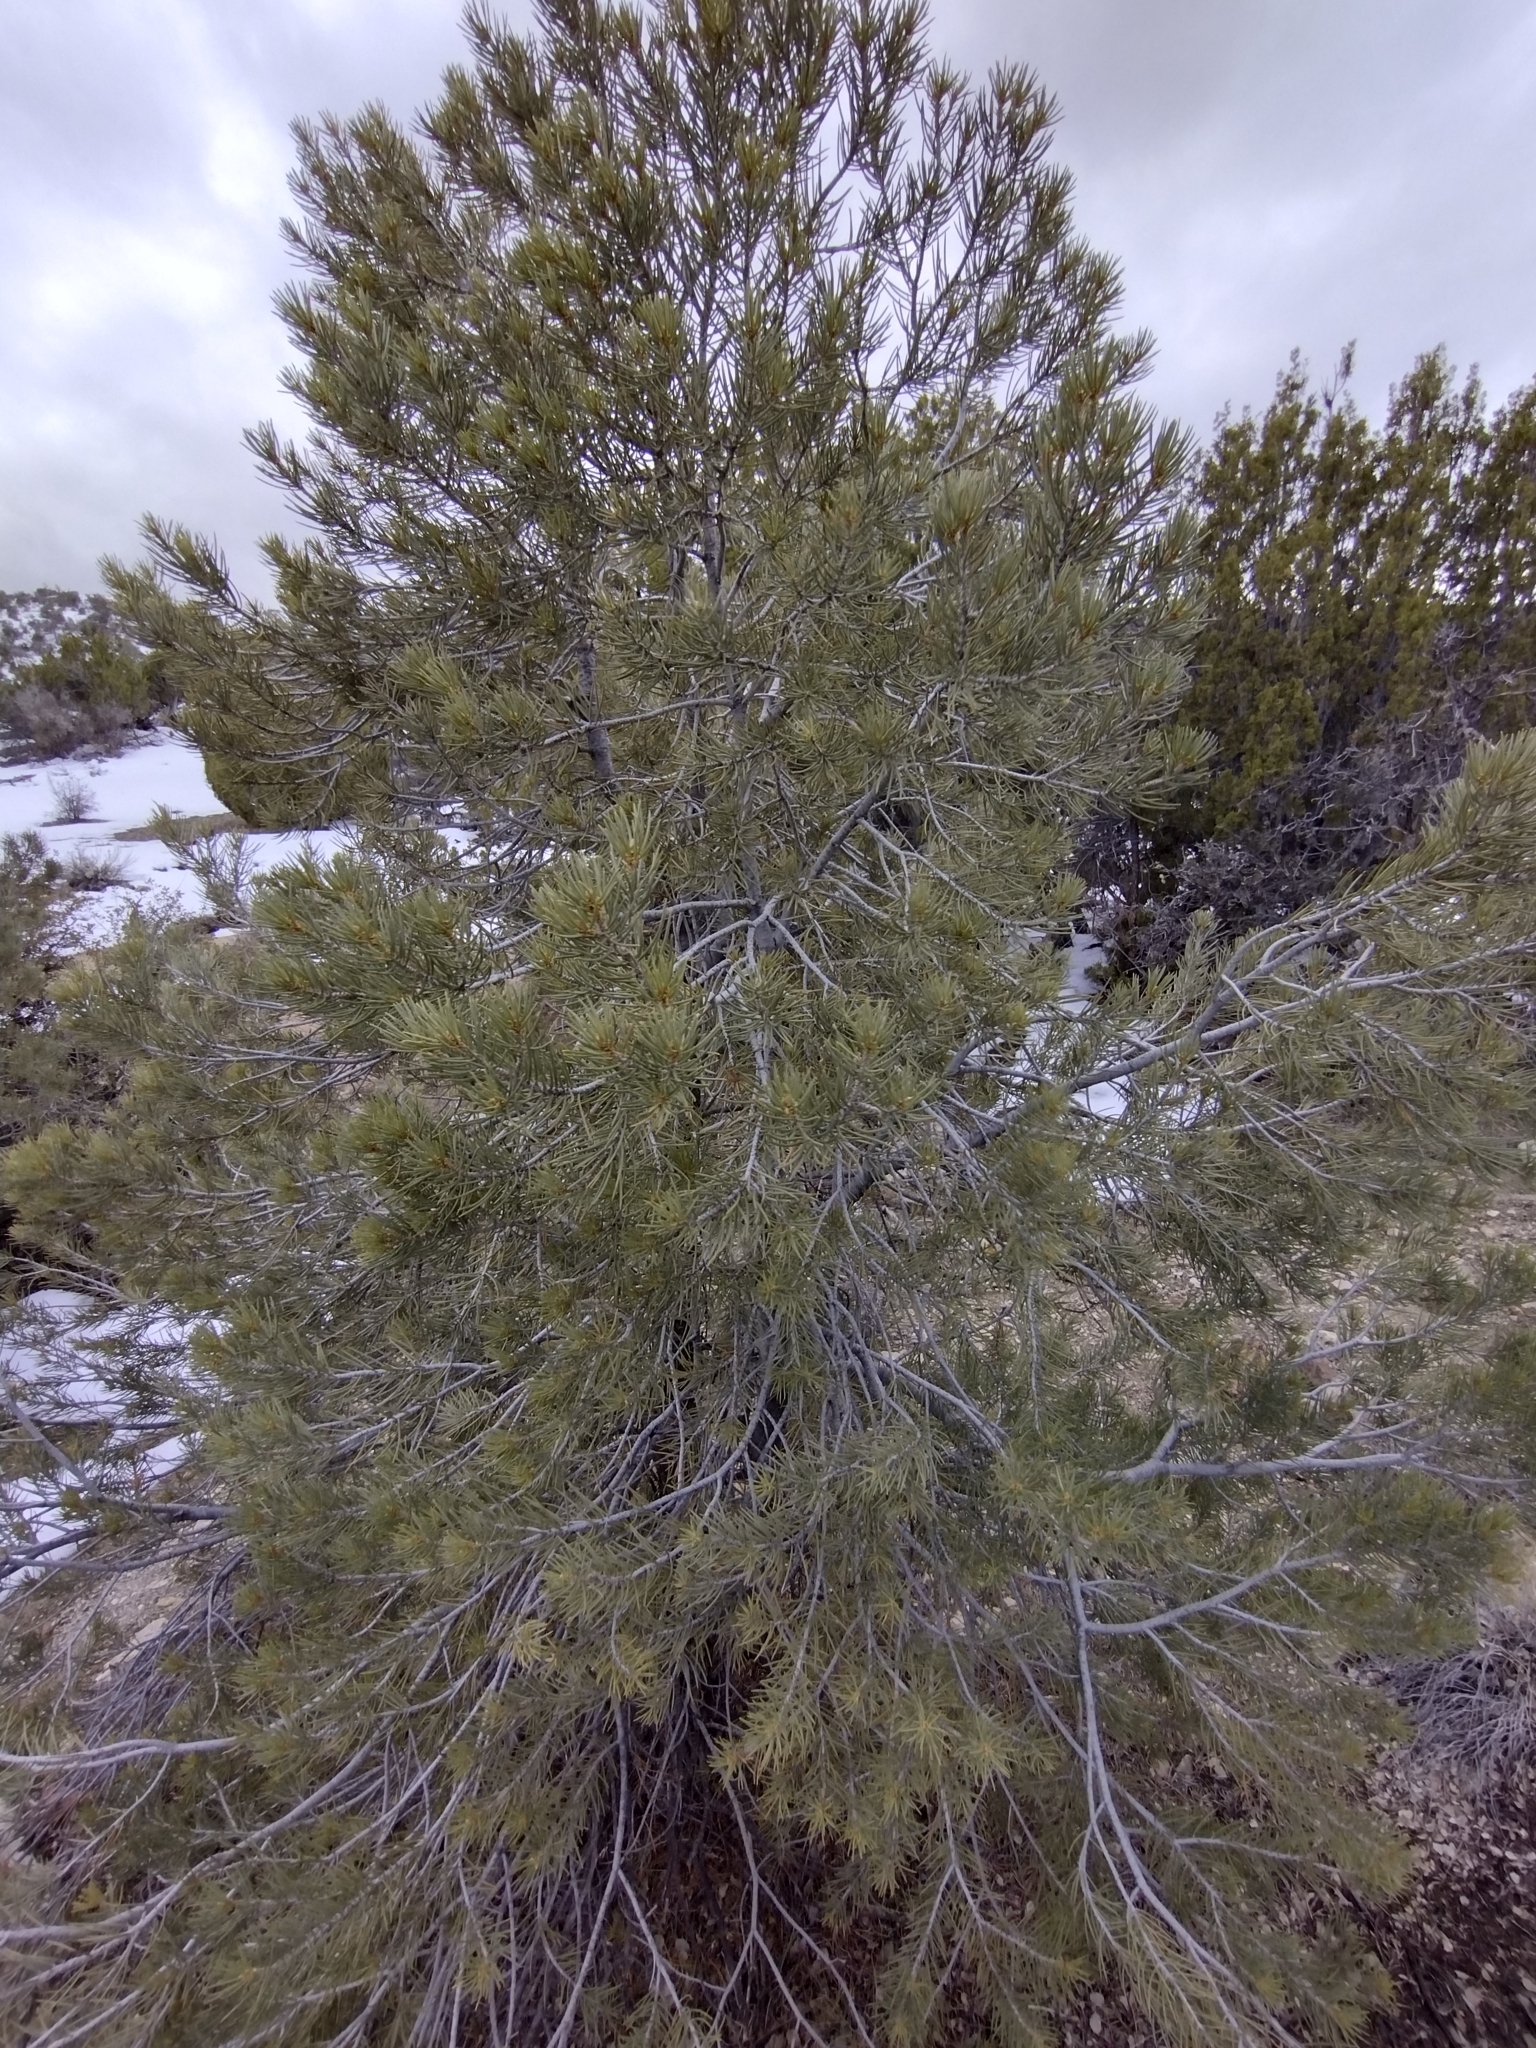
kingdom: Plantae
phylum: Tracheophyta
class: Pinopsida
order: Pinales
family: Pinaceae
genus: Pinus
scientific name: Pinus monophylla
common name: One-leaved nut pine
